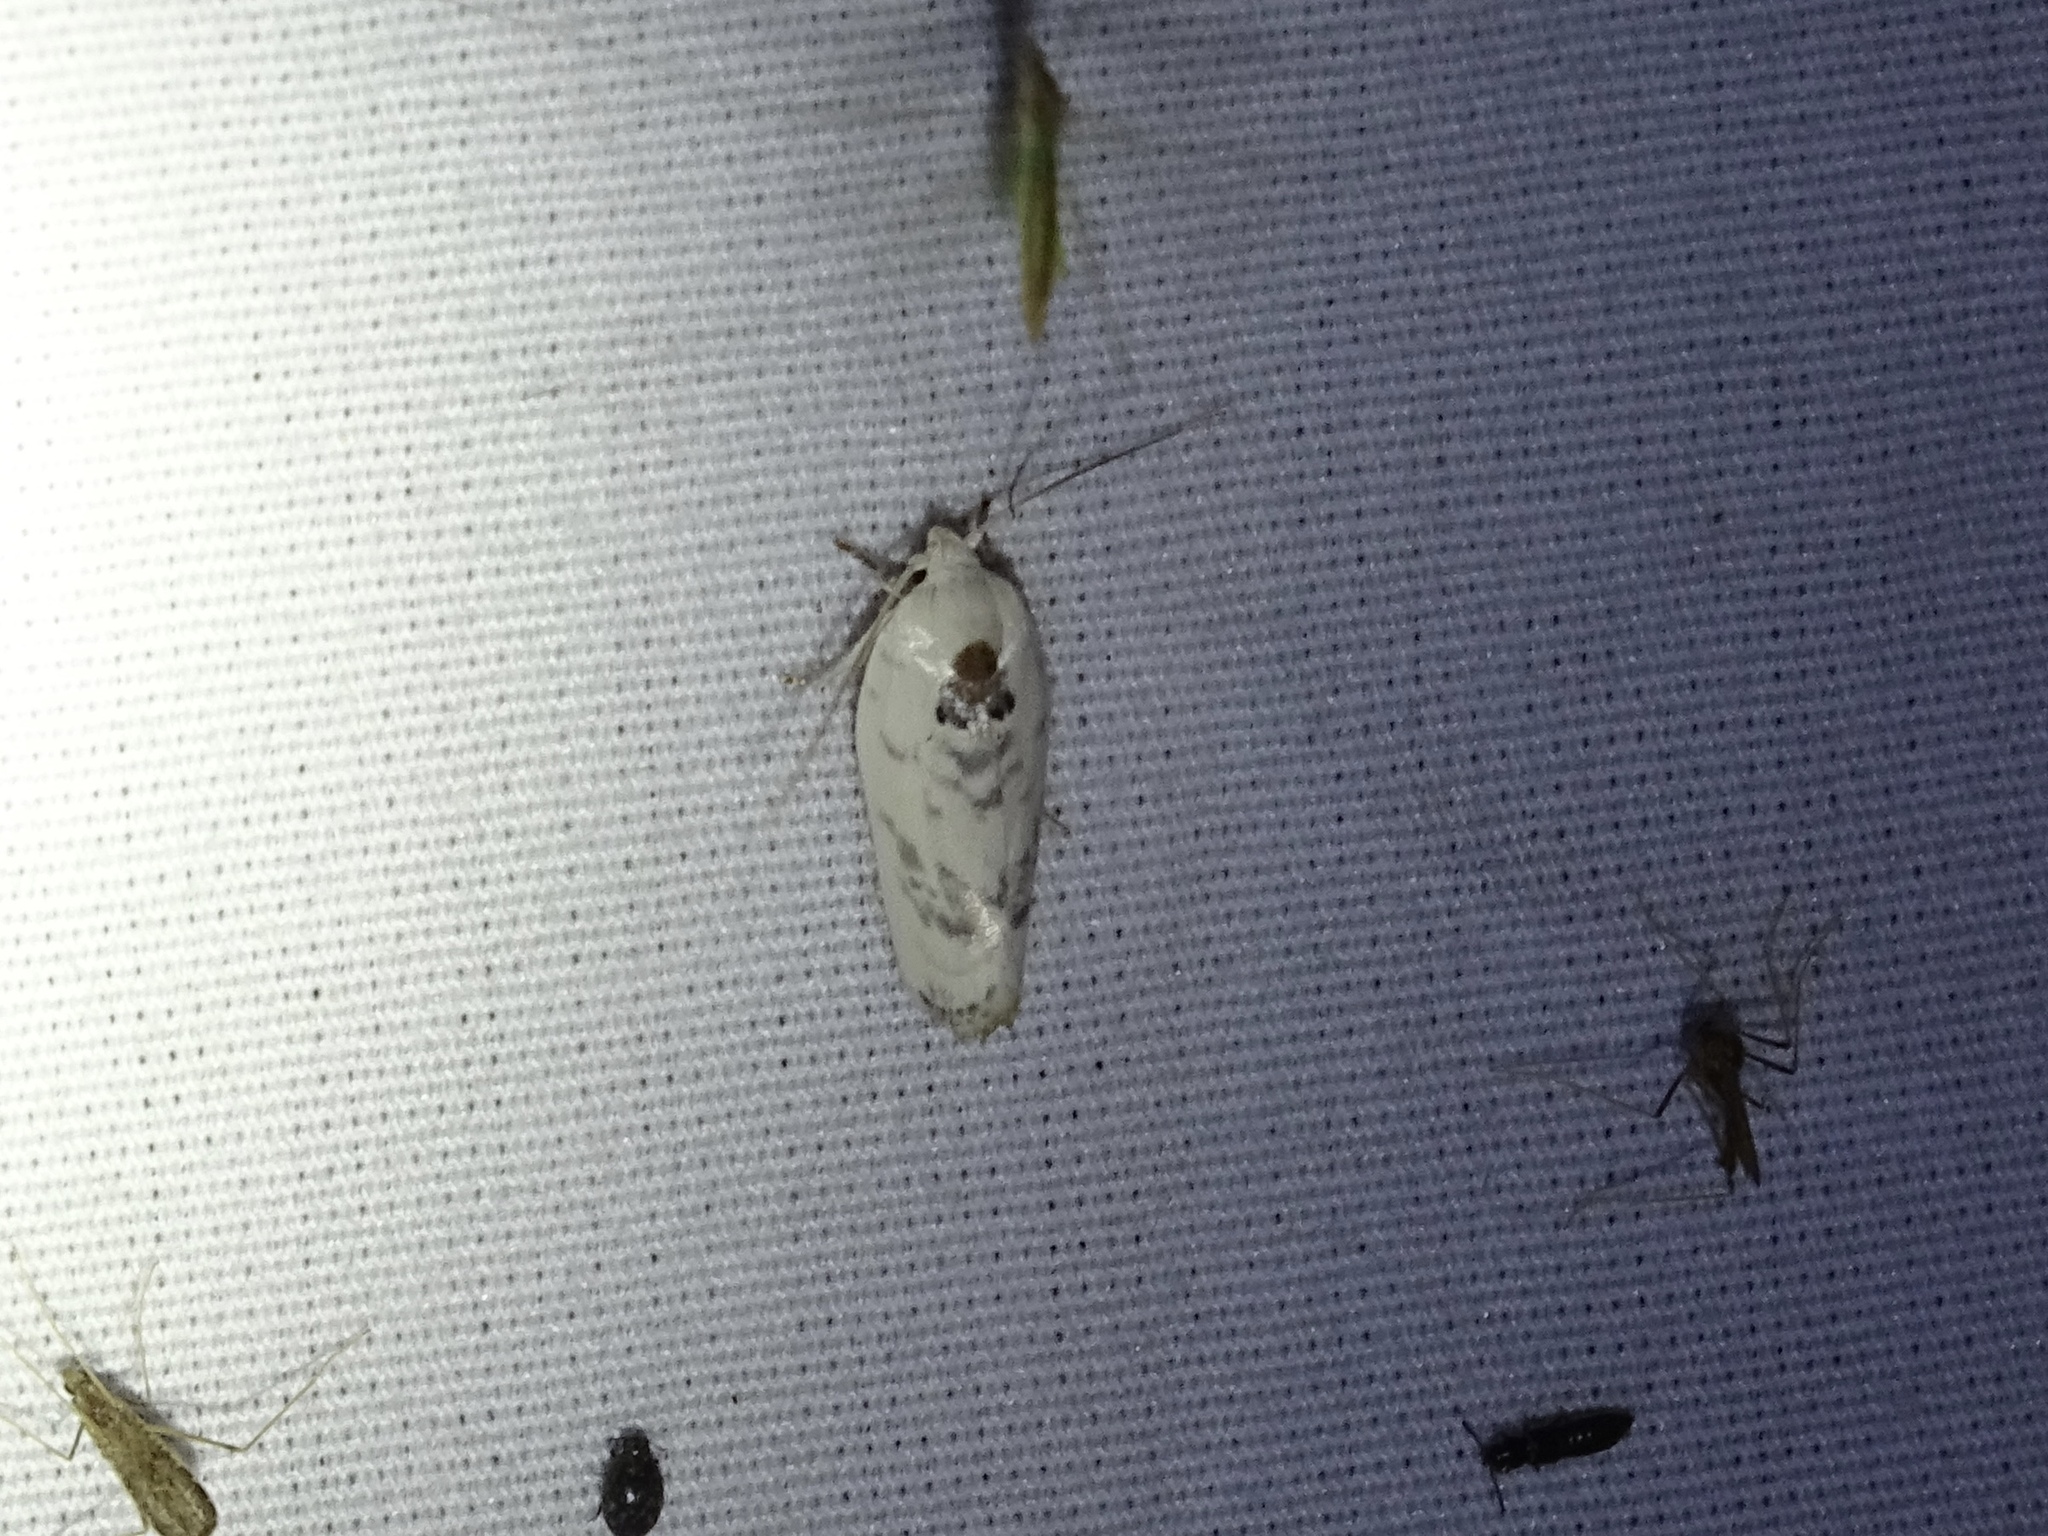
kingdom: Animalia
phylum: Arthropoda
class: Insecta
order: Lepidoptera
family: Depressariidae
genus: Antaeotricha
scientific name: Antaeotricha leucillana
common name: Pale gray bird-dropping moth
